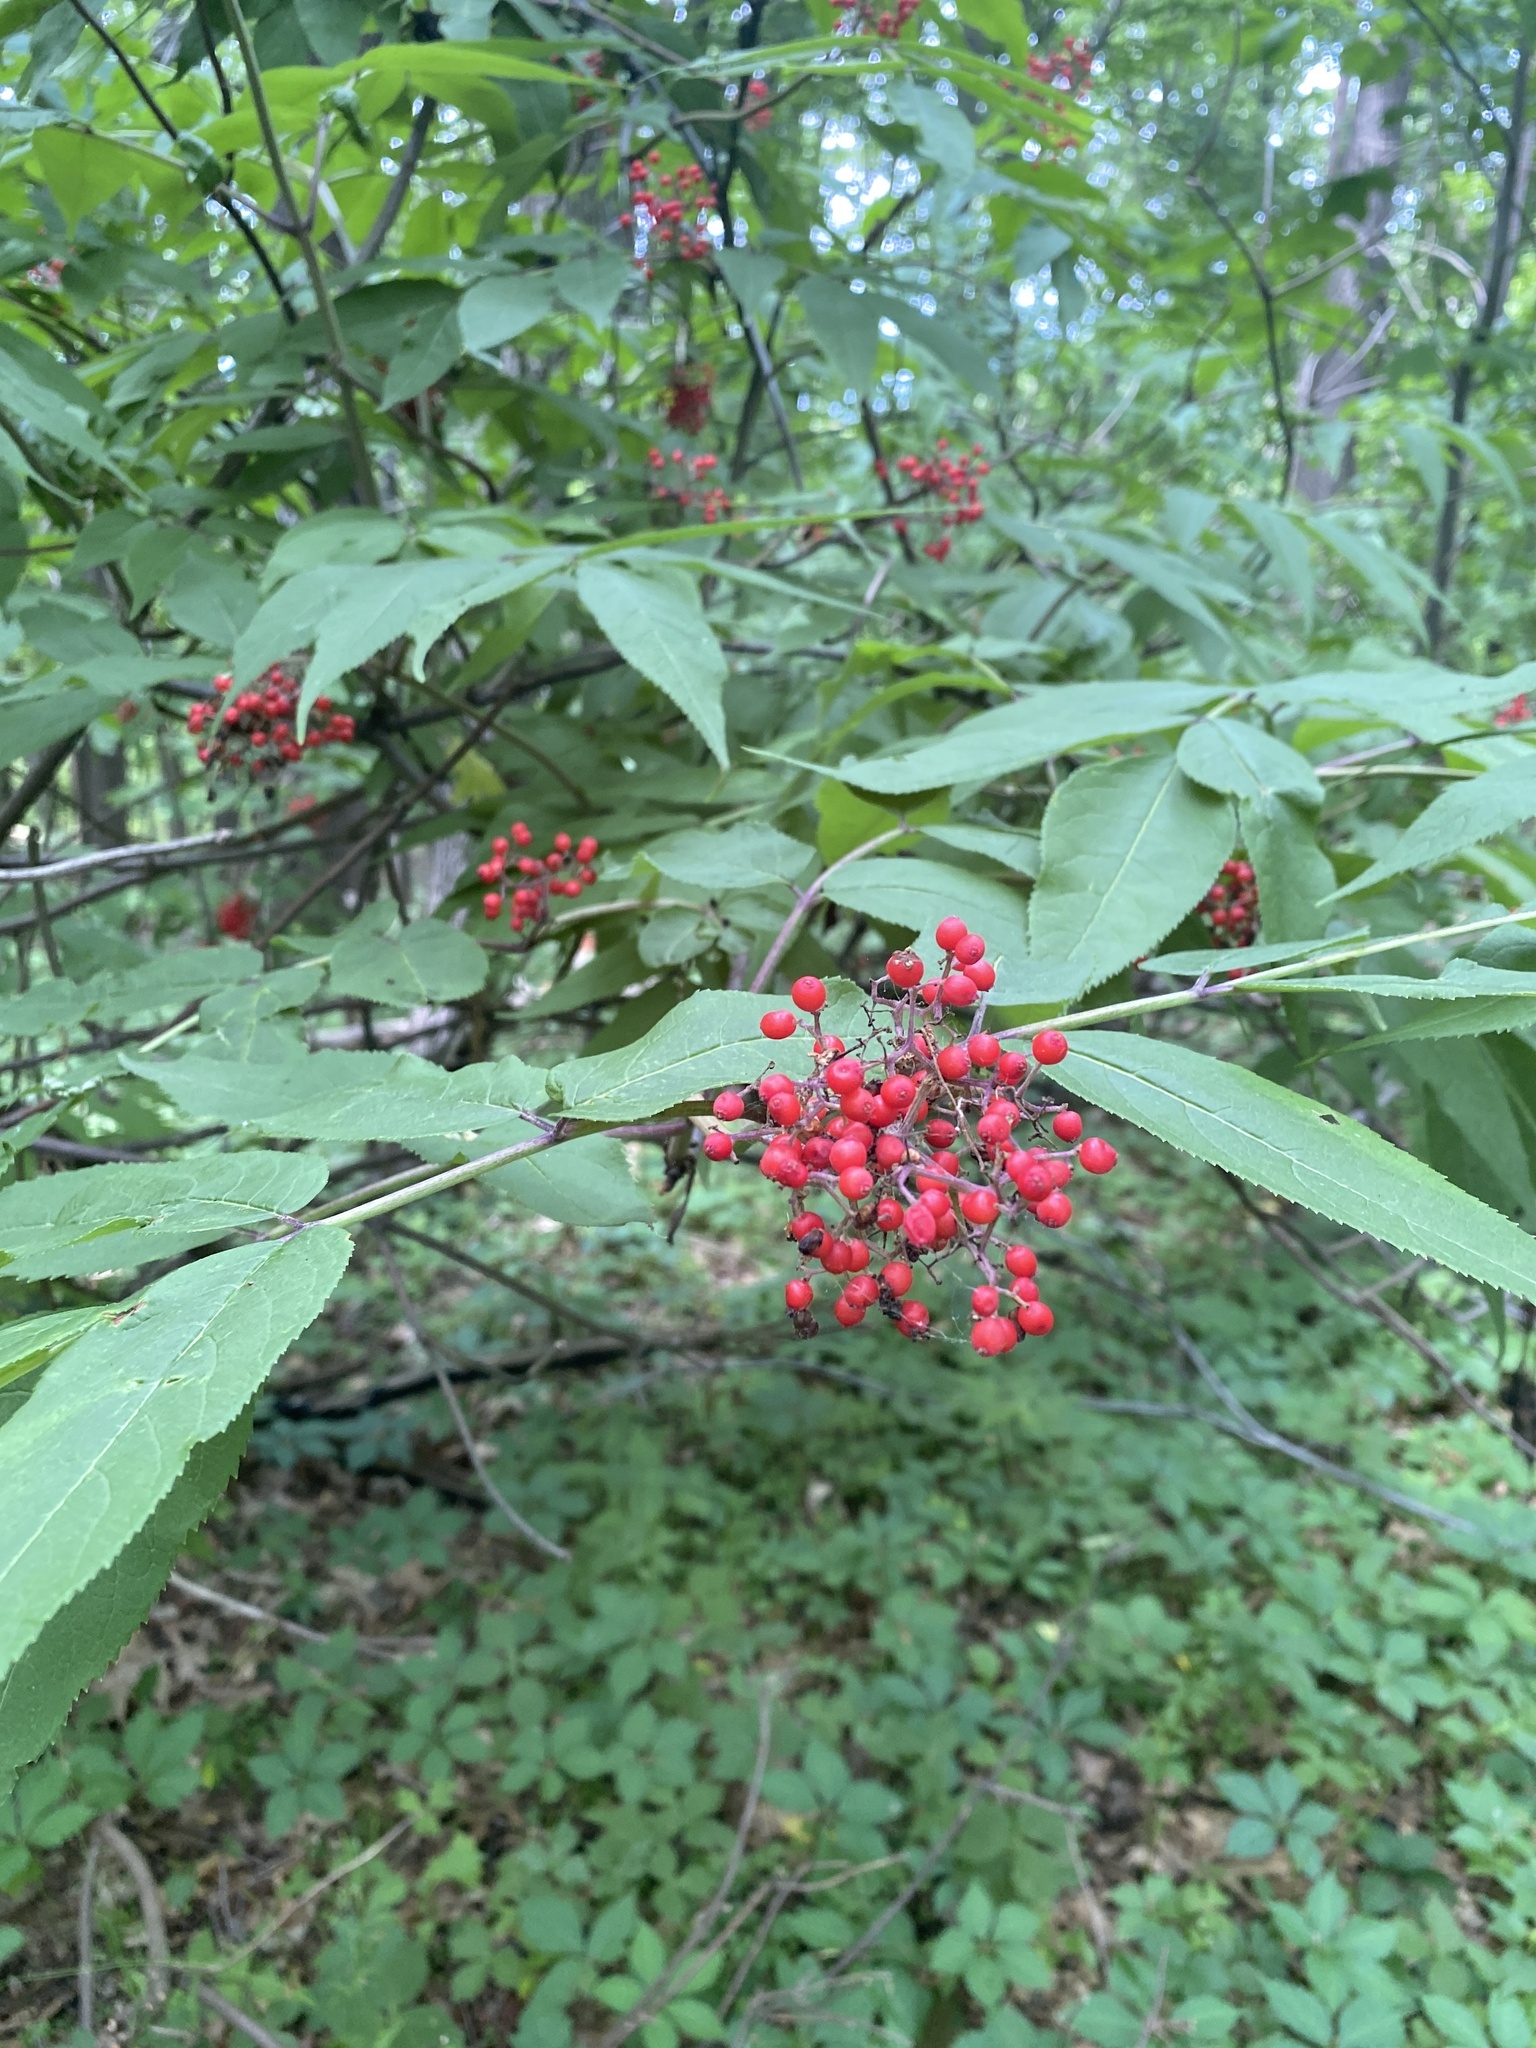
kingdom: Plantae
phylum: Tracheophyta
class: Magnoliopsida
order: Dipsacales
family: Viburnaceae
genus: Sambucus
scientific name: Sambucus racemosa
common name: Red-berried elder
